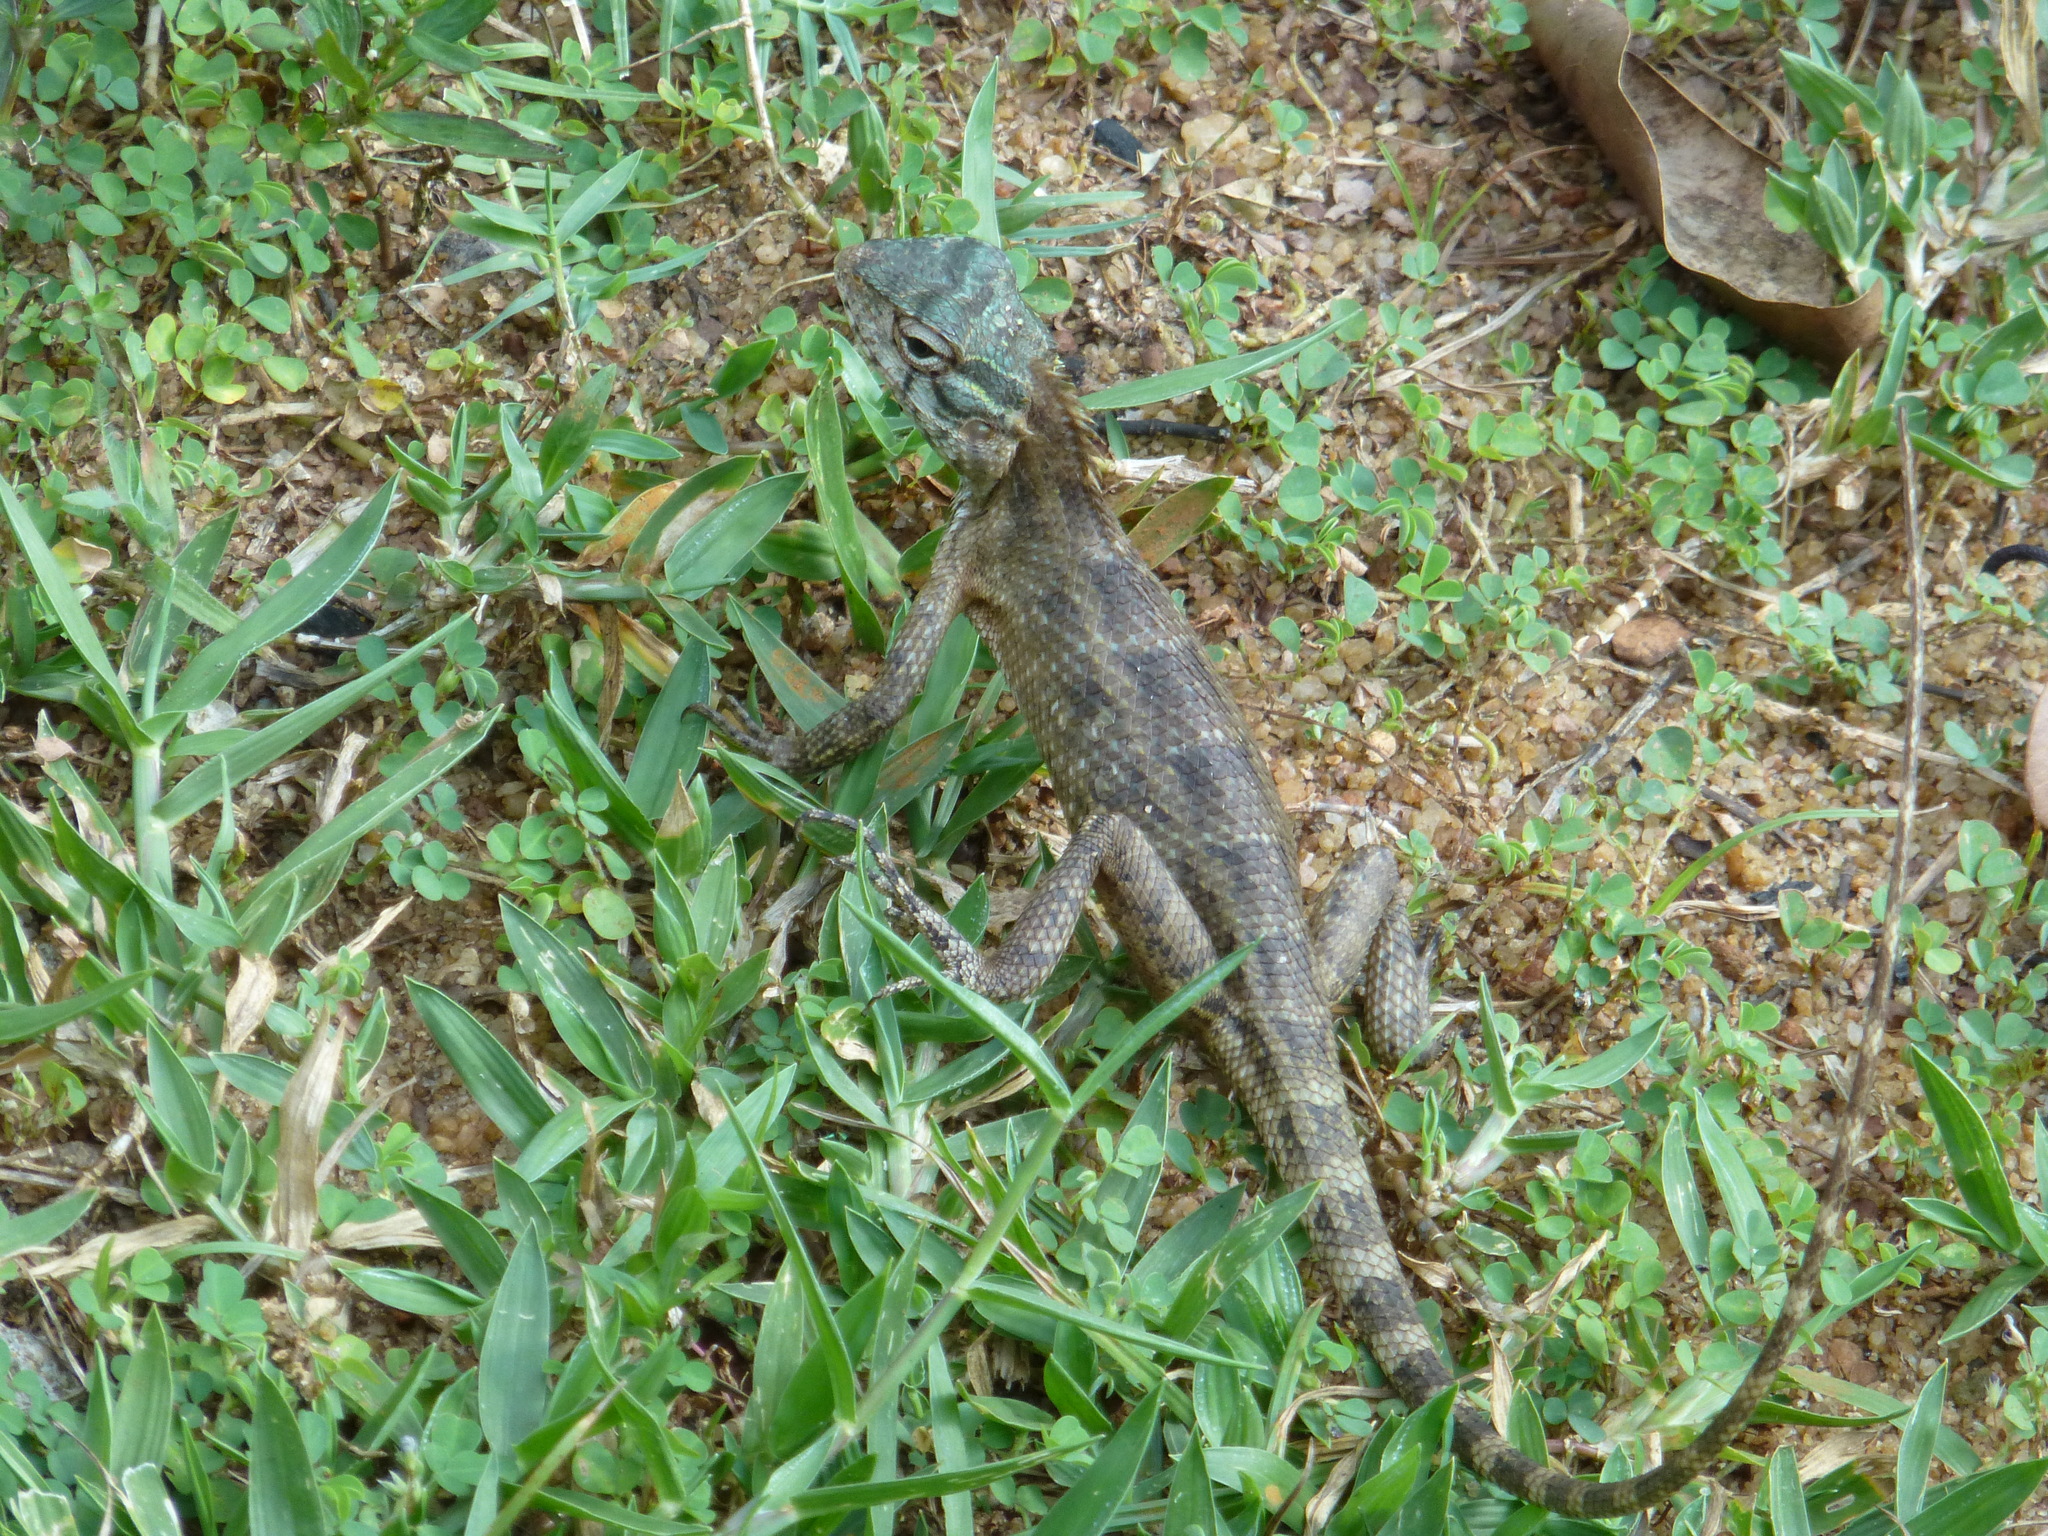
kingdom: Animalia
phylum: Chordata
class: Squamata
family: Agamidae
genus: Calotes
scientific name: Calotes versicolor
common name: Oriental garden lizard
